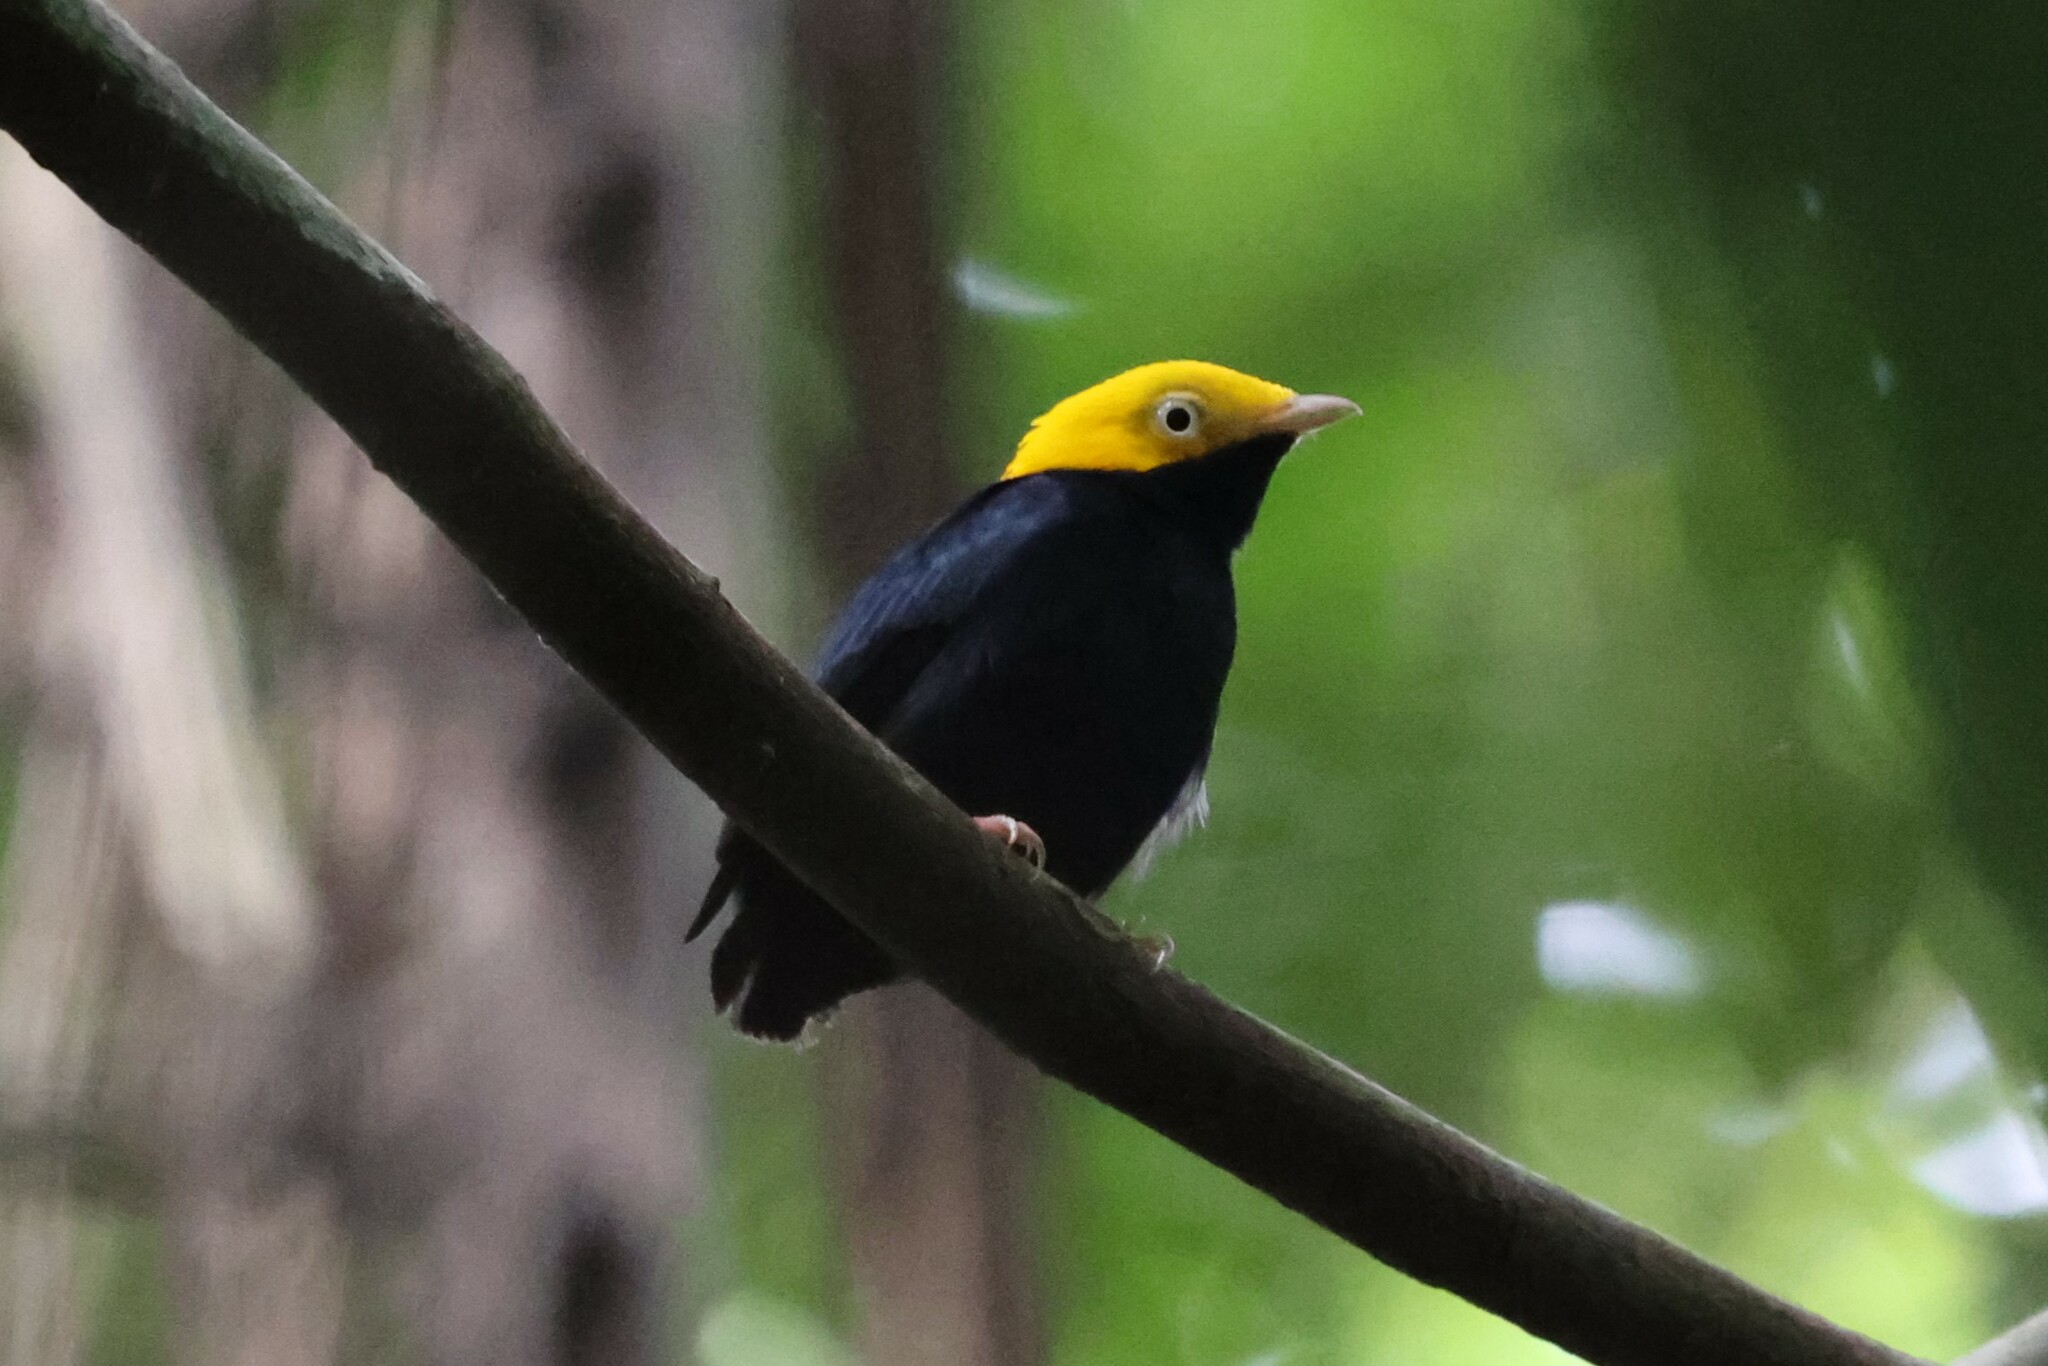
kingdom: Animalia
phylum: Chordata
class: Aves
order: Passeriformes
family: Pipridae
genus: Pipra
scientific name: Pipra erythrocephala
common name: Golden-headed manakin
